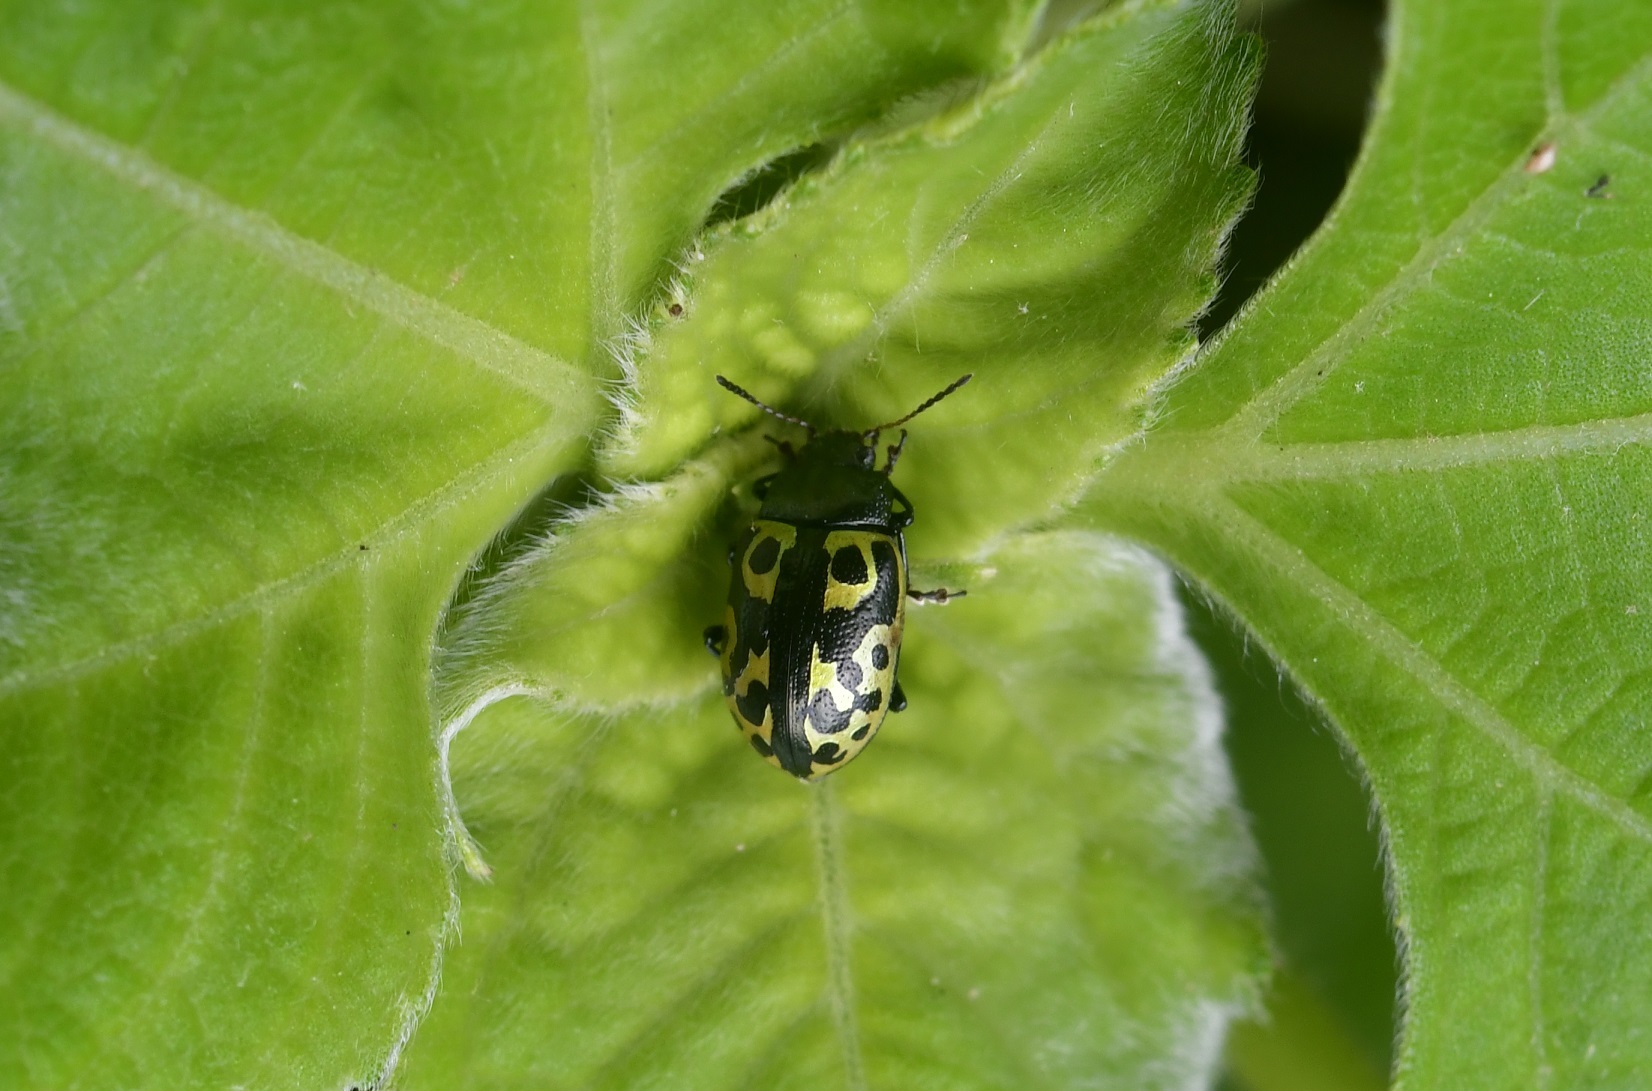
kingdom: Animalia
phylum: Arthropoda
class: Insecta
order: Coleoptera
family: Chrysomelidae
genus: Calligrapha
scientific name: Calligrapha
